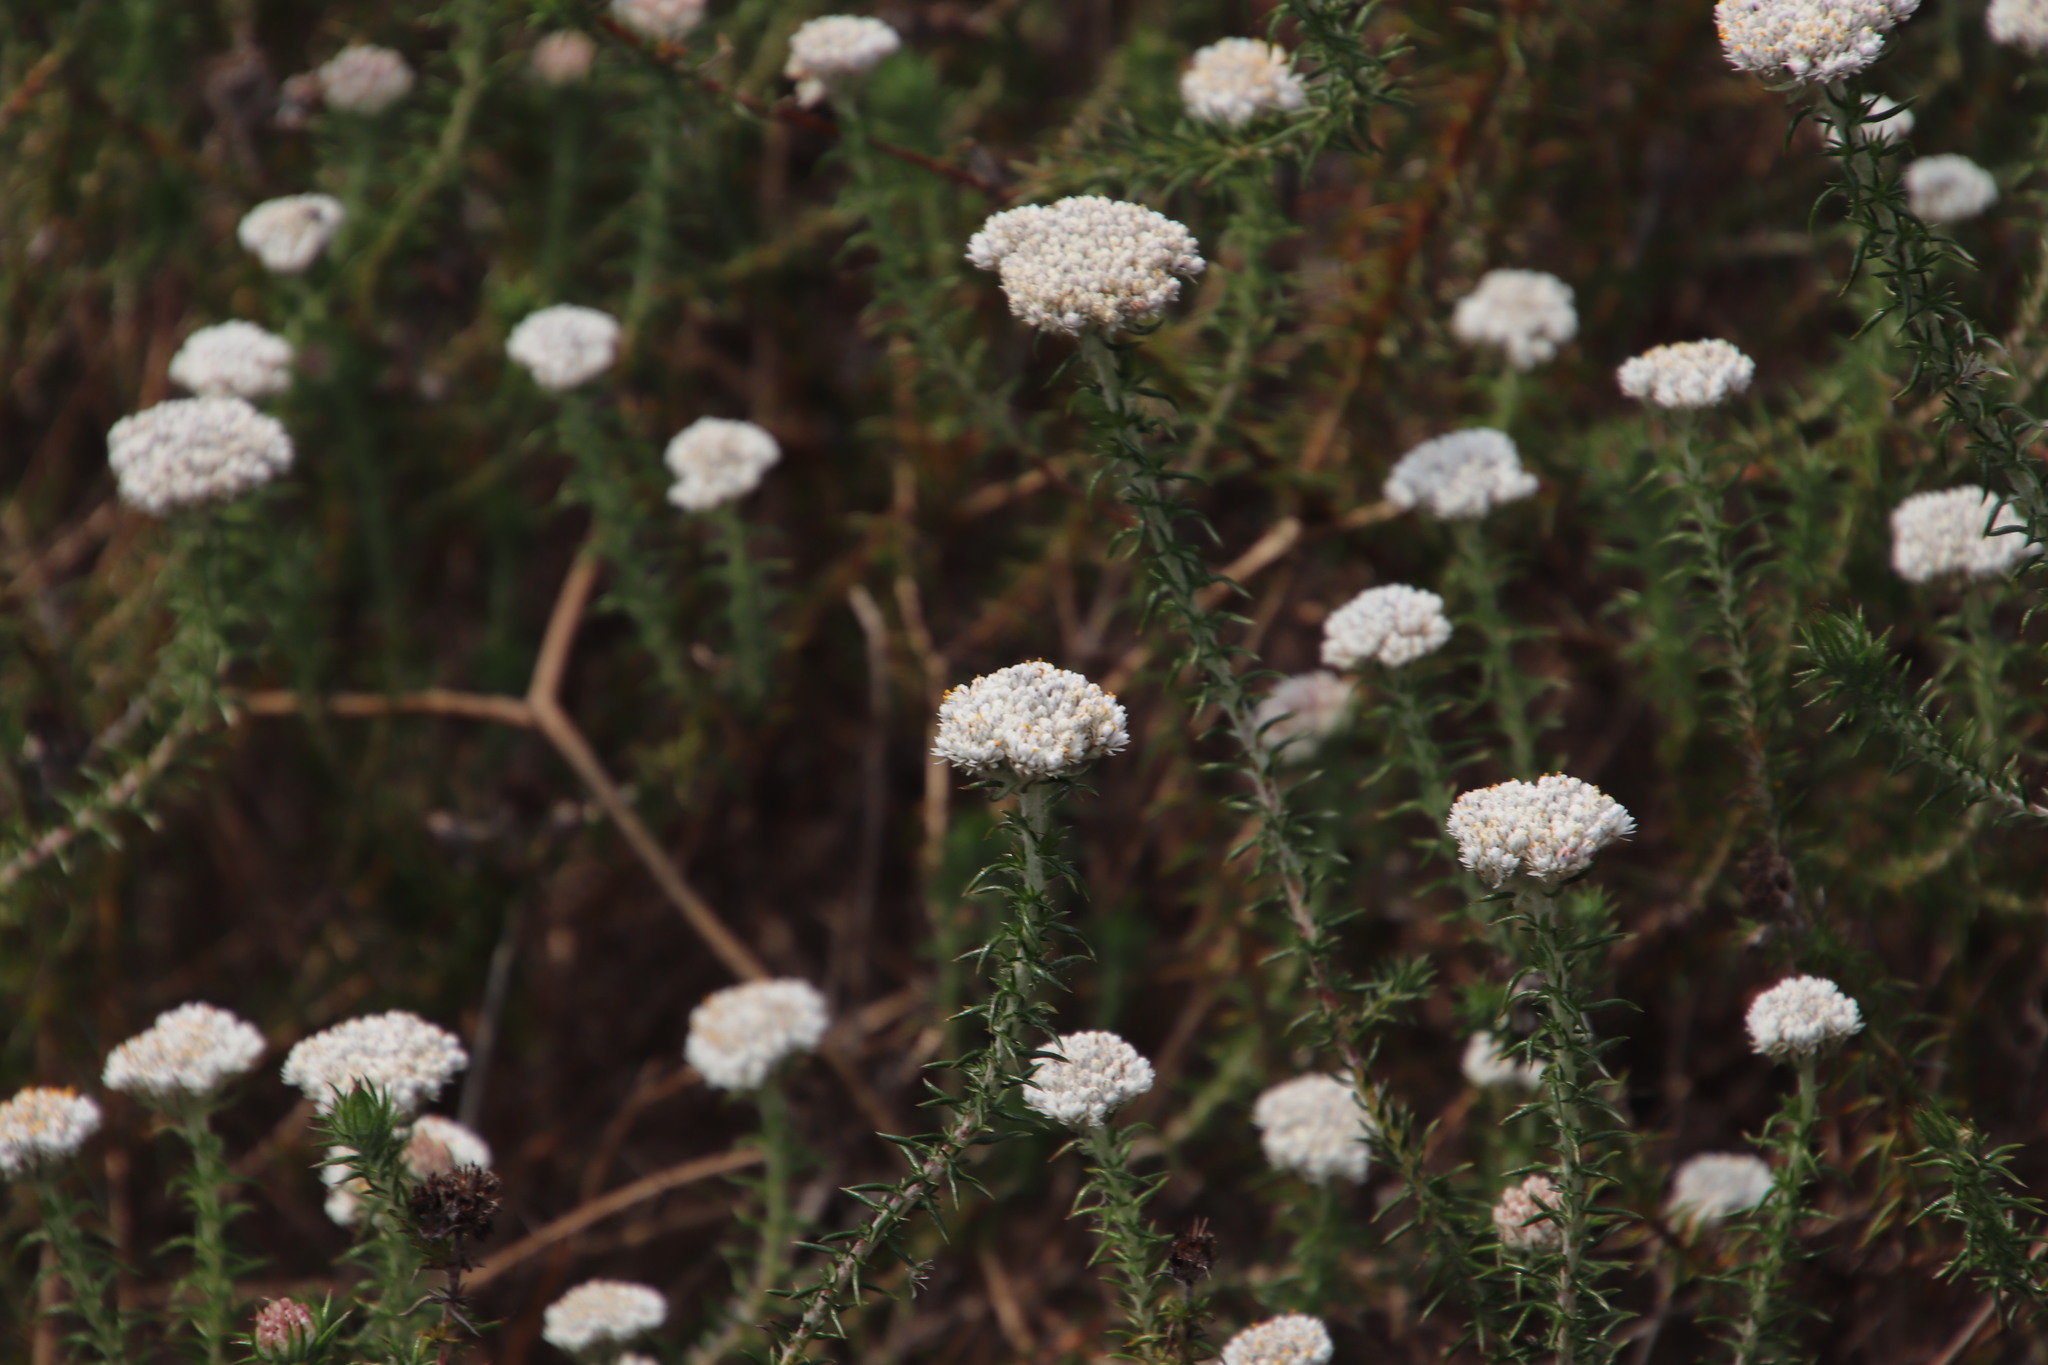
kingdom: Plantae
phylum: Tracheophyta
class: Magnoliopsida
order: Asterales
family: Asteraceae
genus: Metalasia
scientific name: Metalasia pulchella
